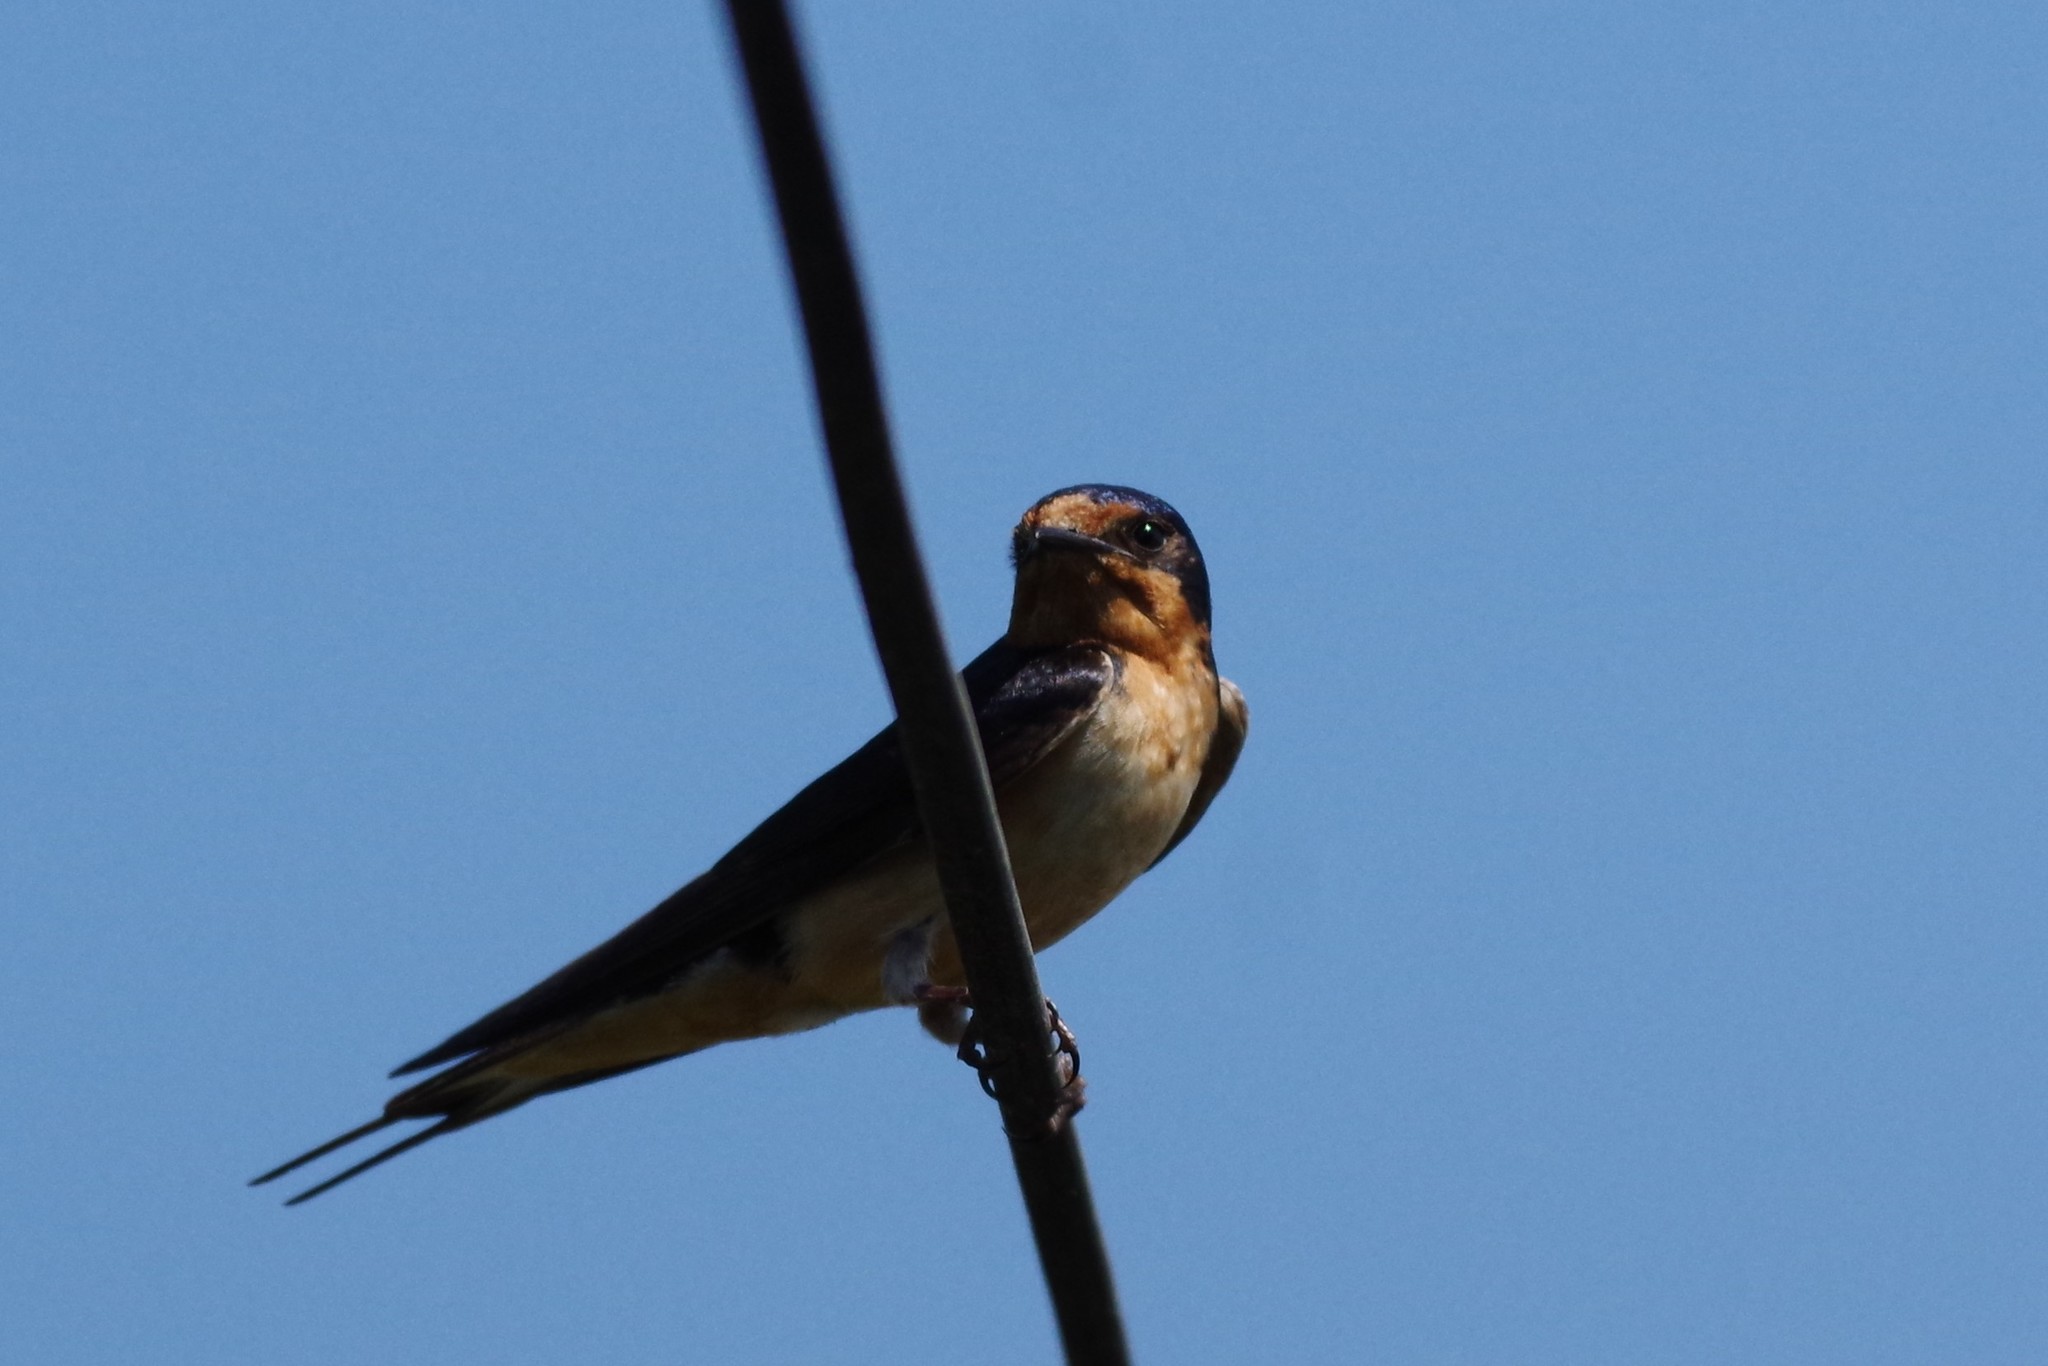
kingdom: Animalia
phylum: Chordata
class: Aves
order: Passeriformes
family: Hirundinidae
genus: Hirundo
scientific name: Hirundo rustica
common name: Barn swallow
